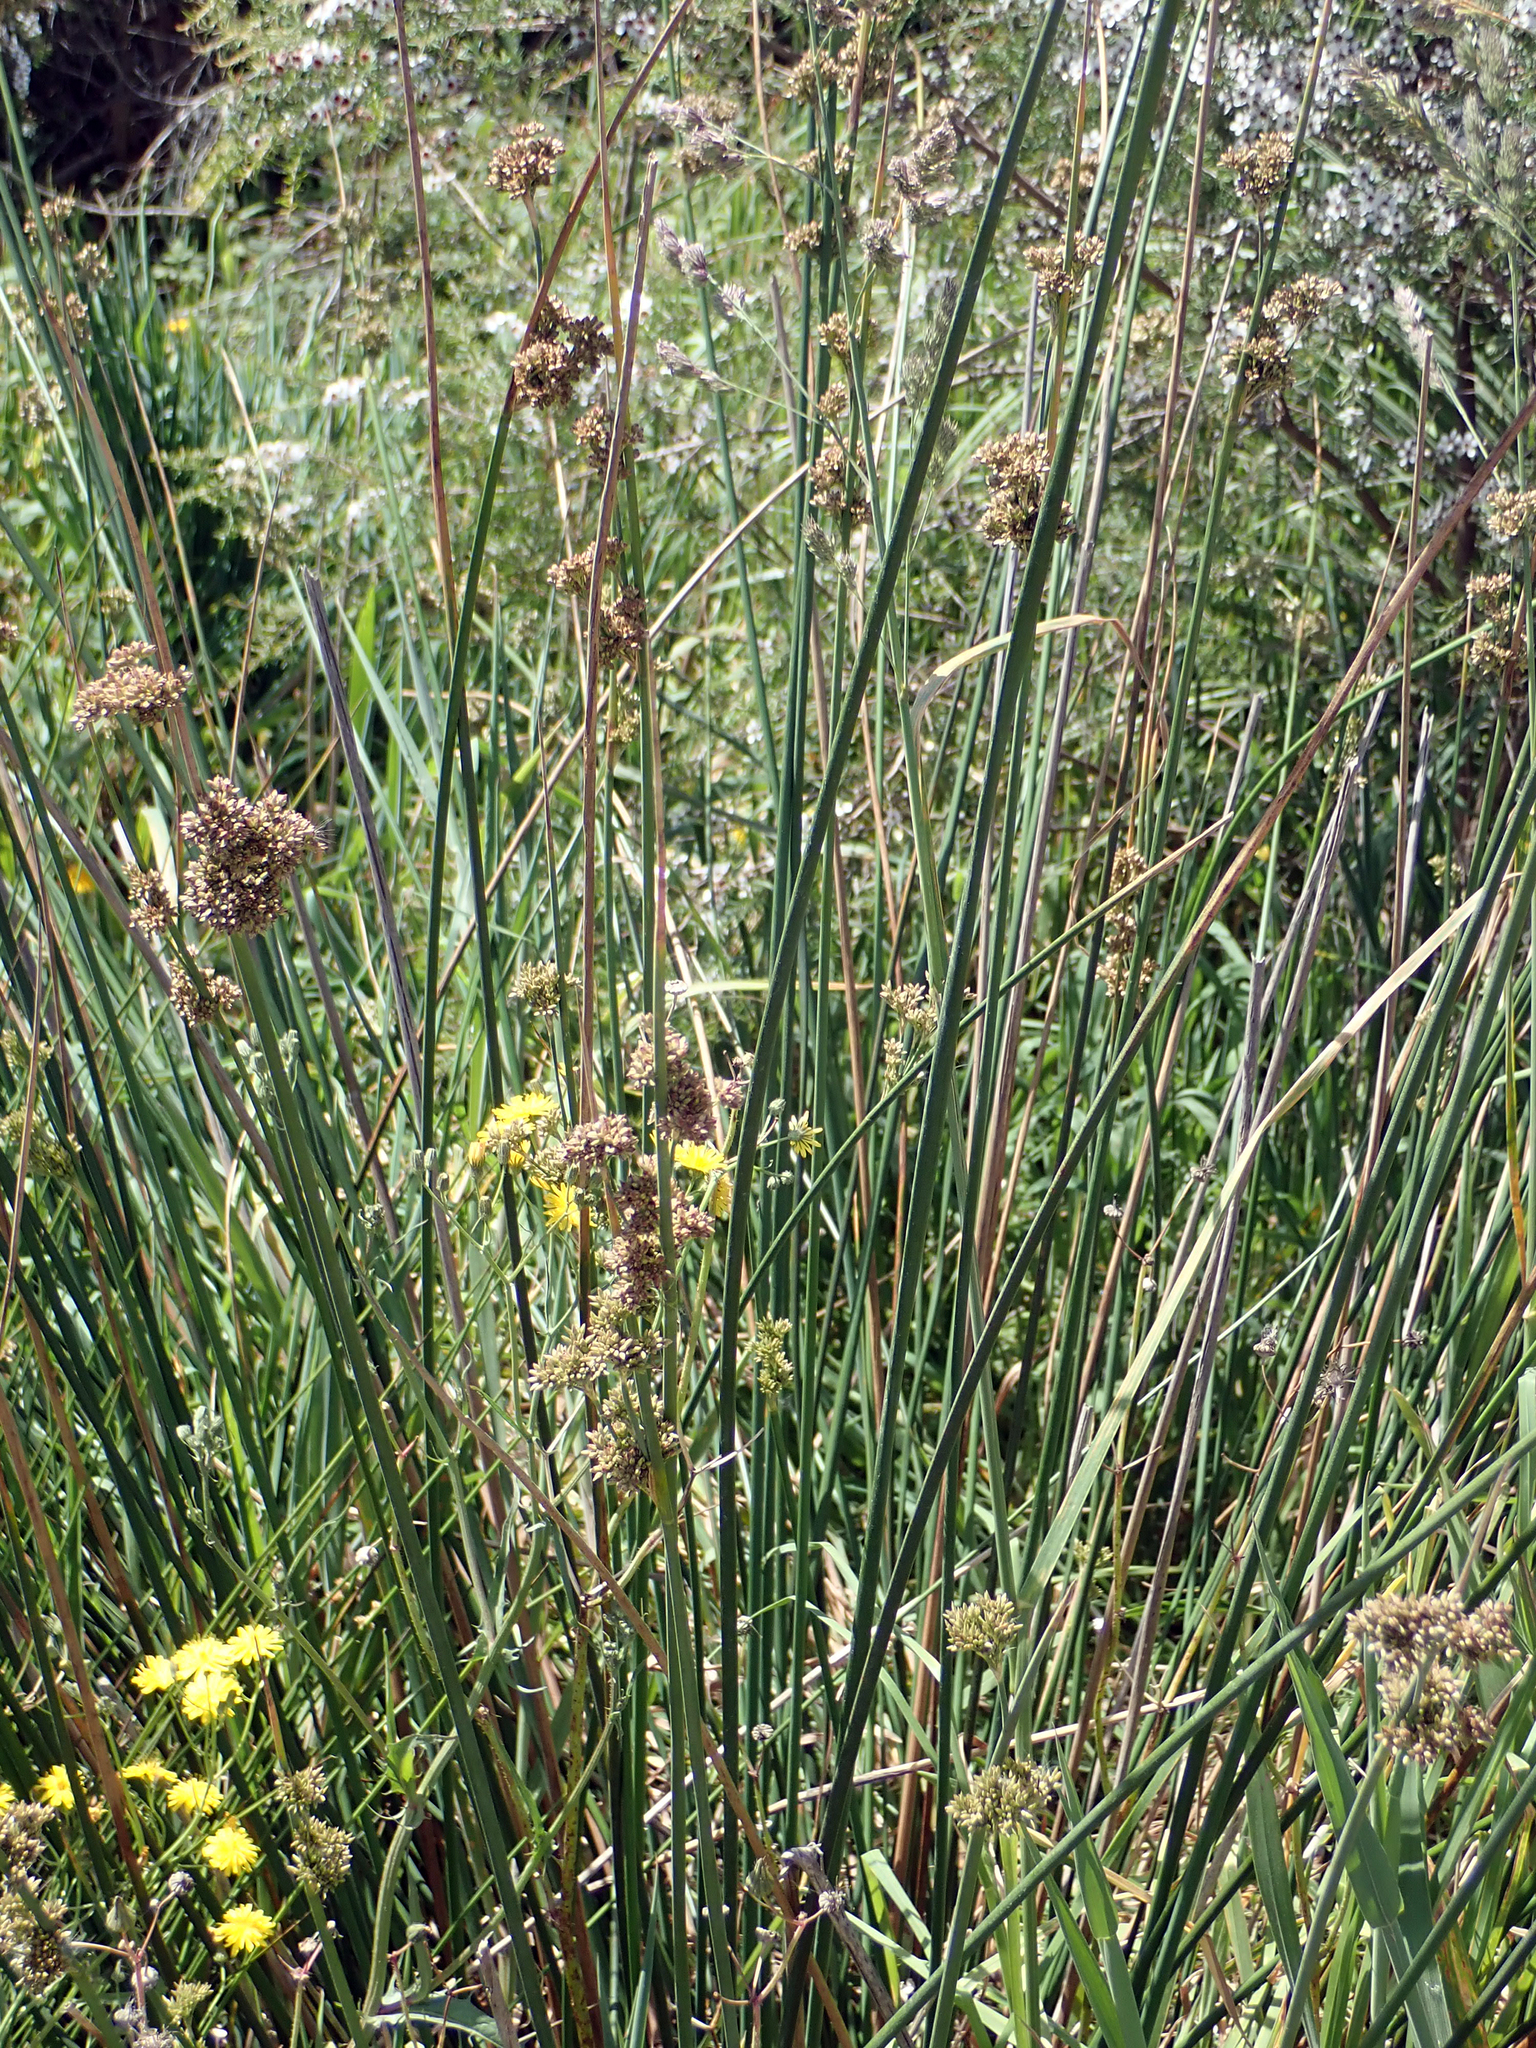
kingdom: Plantae
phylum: Tracheophyta
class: Liliopsida
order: Poales
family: Juncaceae
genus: Juncus
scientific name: Juncus pallidus
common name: Great soft-rush
